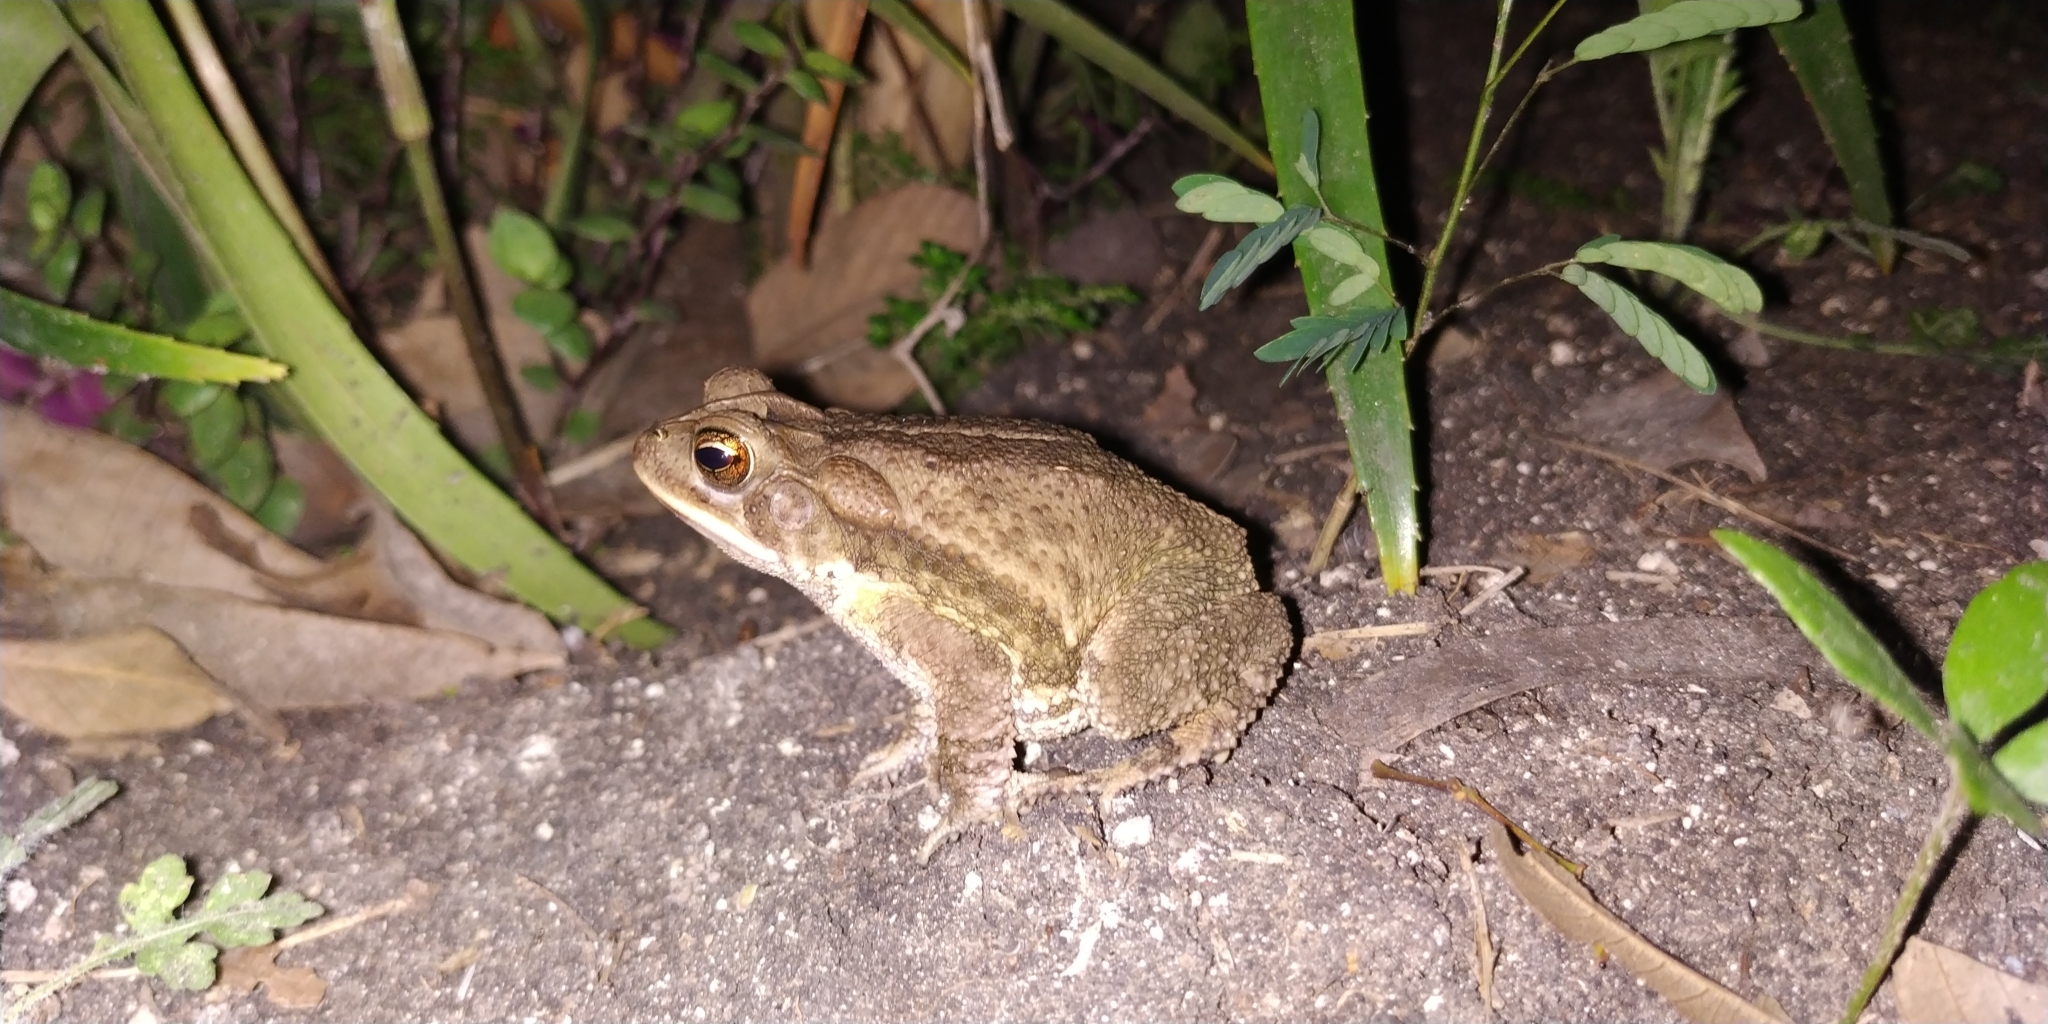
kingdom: Animalia
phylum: Chordata
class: Amphibia
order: Anura
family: Bufonidae
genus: Incilius
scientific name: Incilius valliceps
